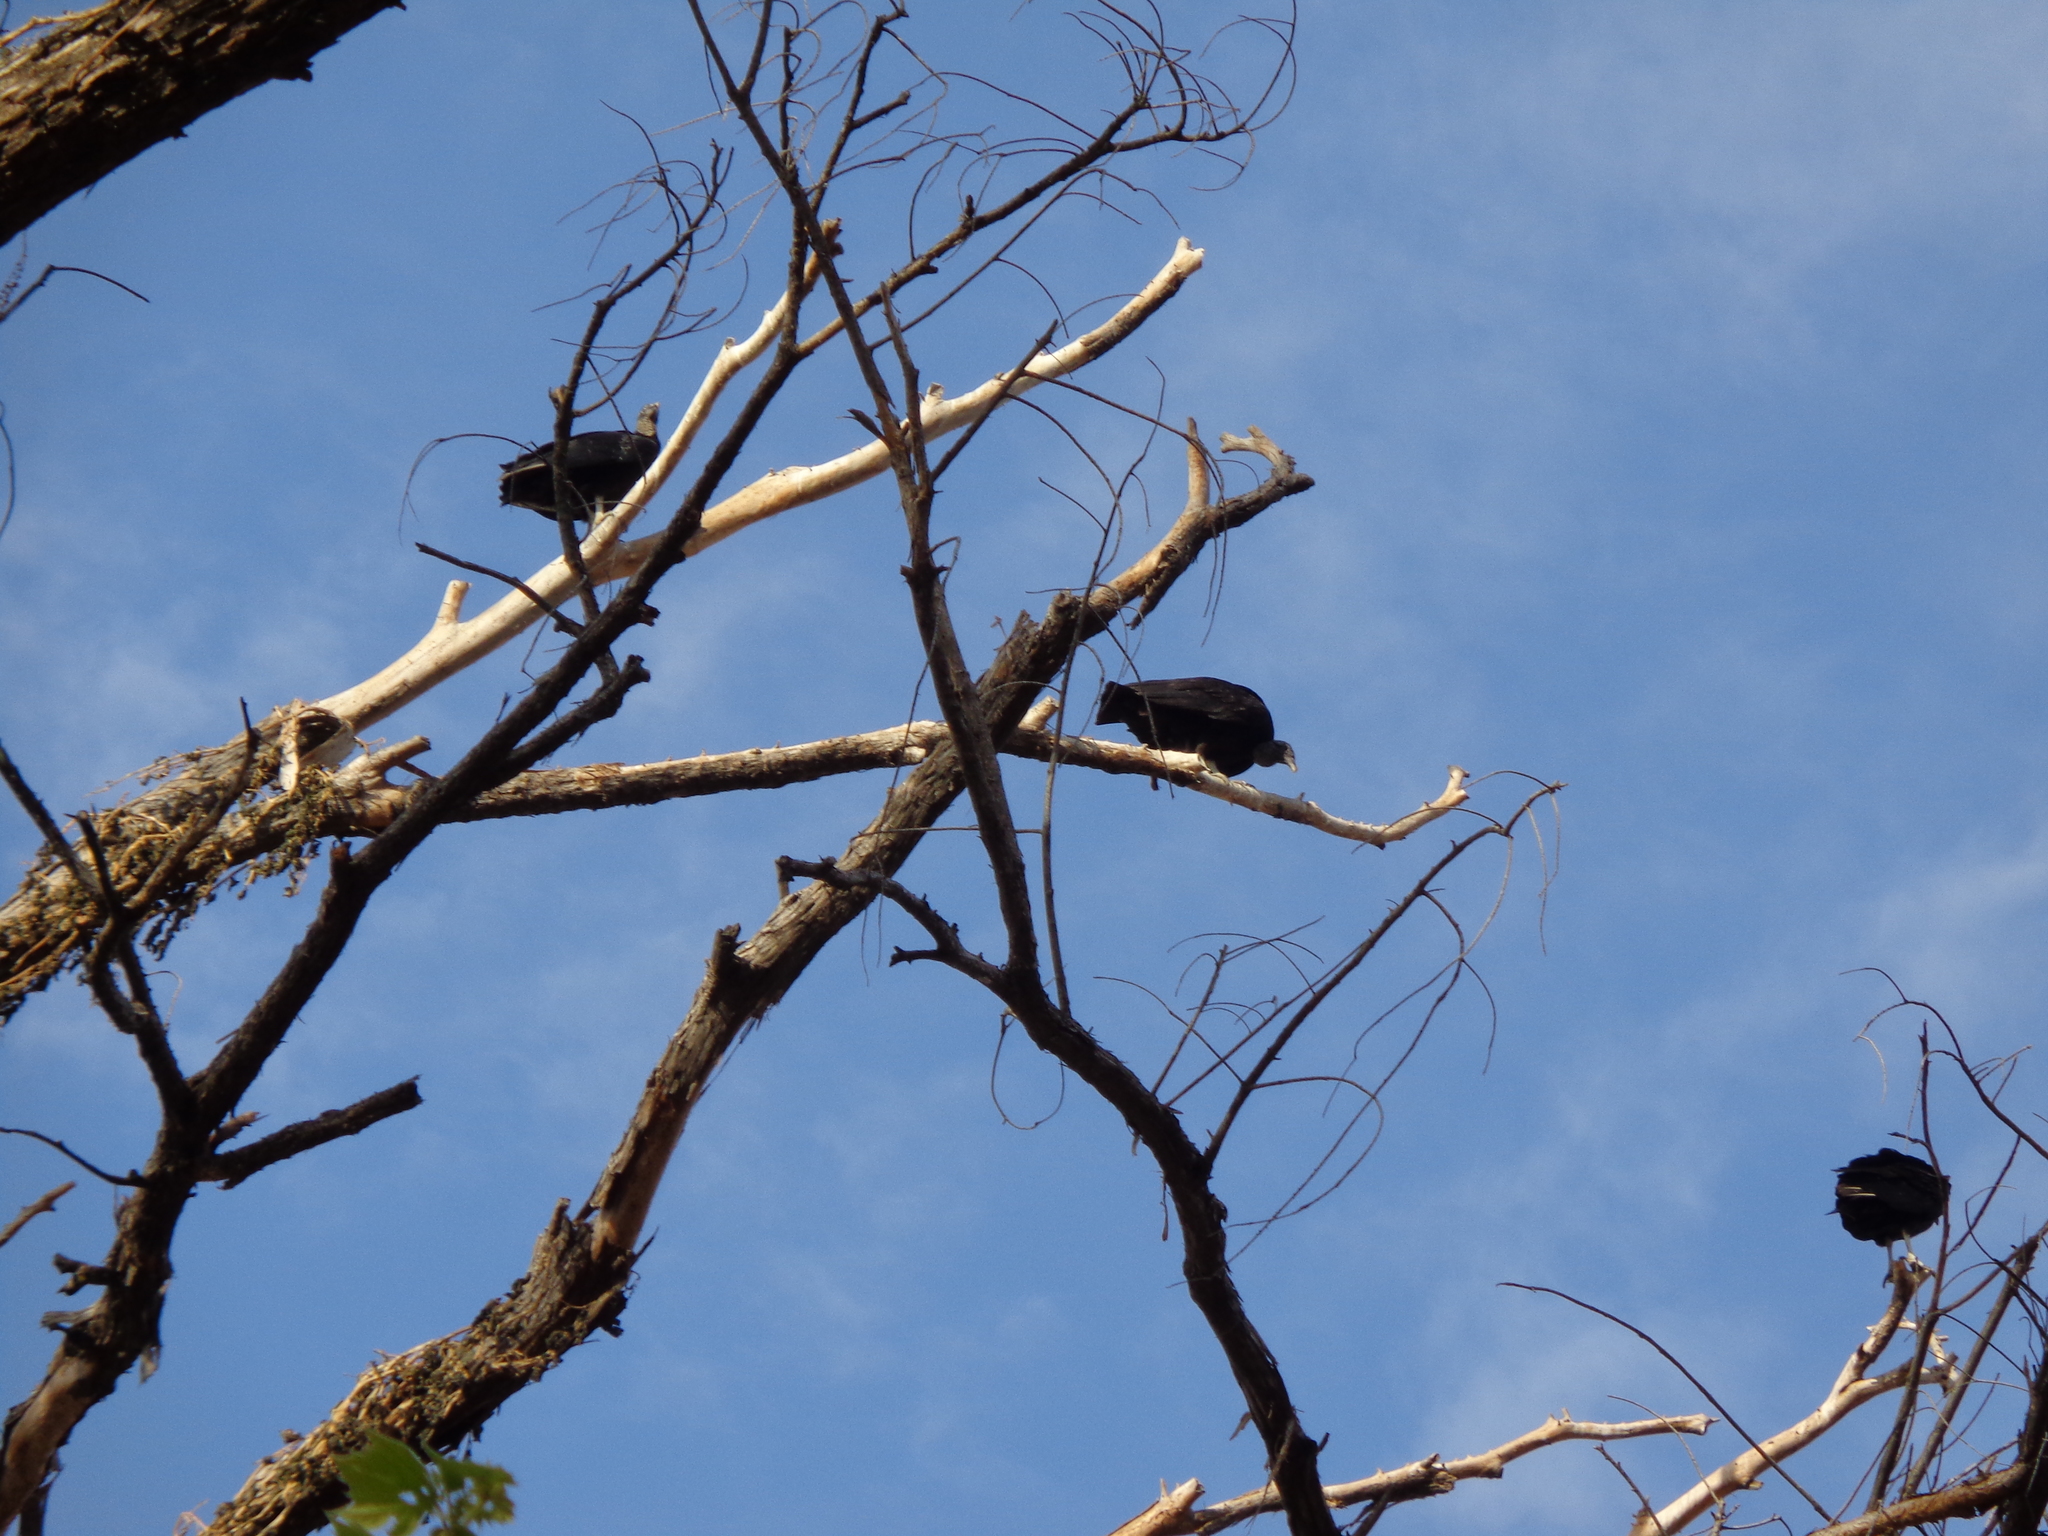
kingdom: Animalia
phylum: Chordata
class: Aves
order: Accipitriformes
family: Cathartidae
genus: Coragyps
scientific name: Coragyps atratus
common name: Black vulture
